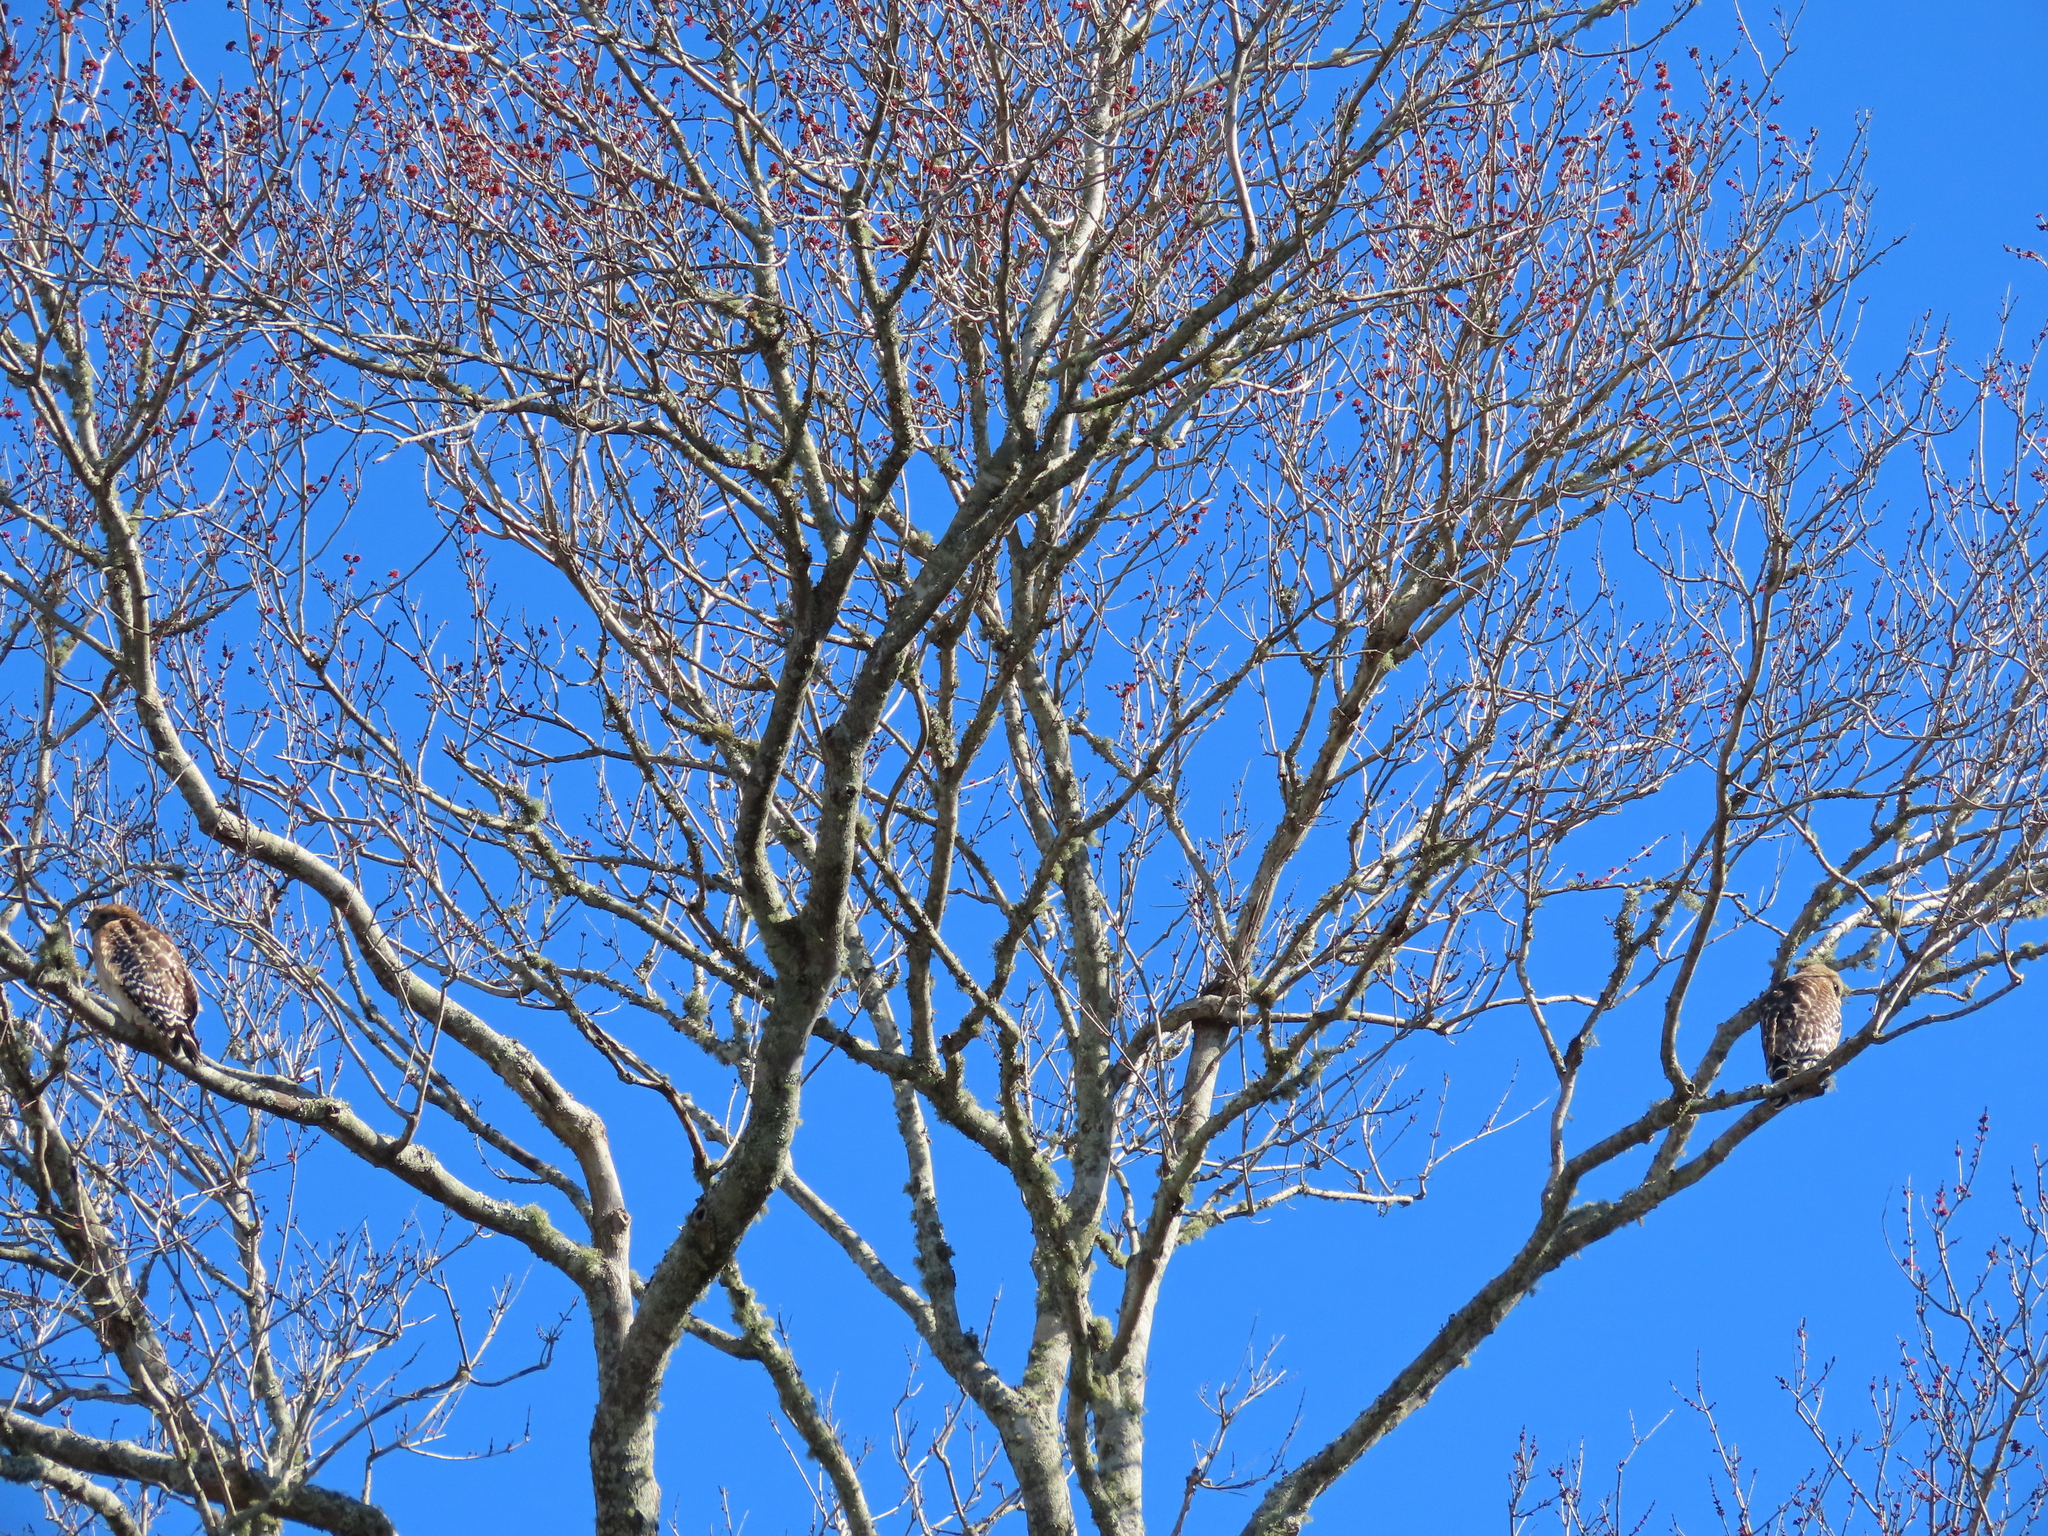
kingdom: Animalia
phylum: Chordata
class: Aves
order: Accipitriformes
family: Accipitridae
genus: Buteo
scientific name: Buteo lineatus
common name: Red-shouldered hawk
